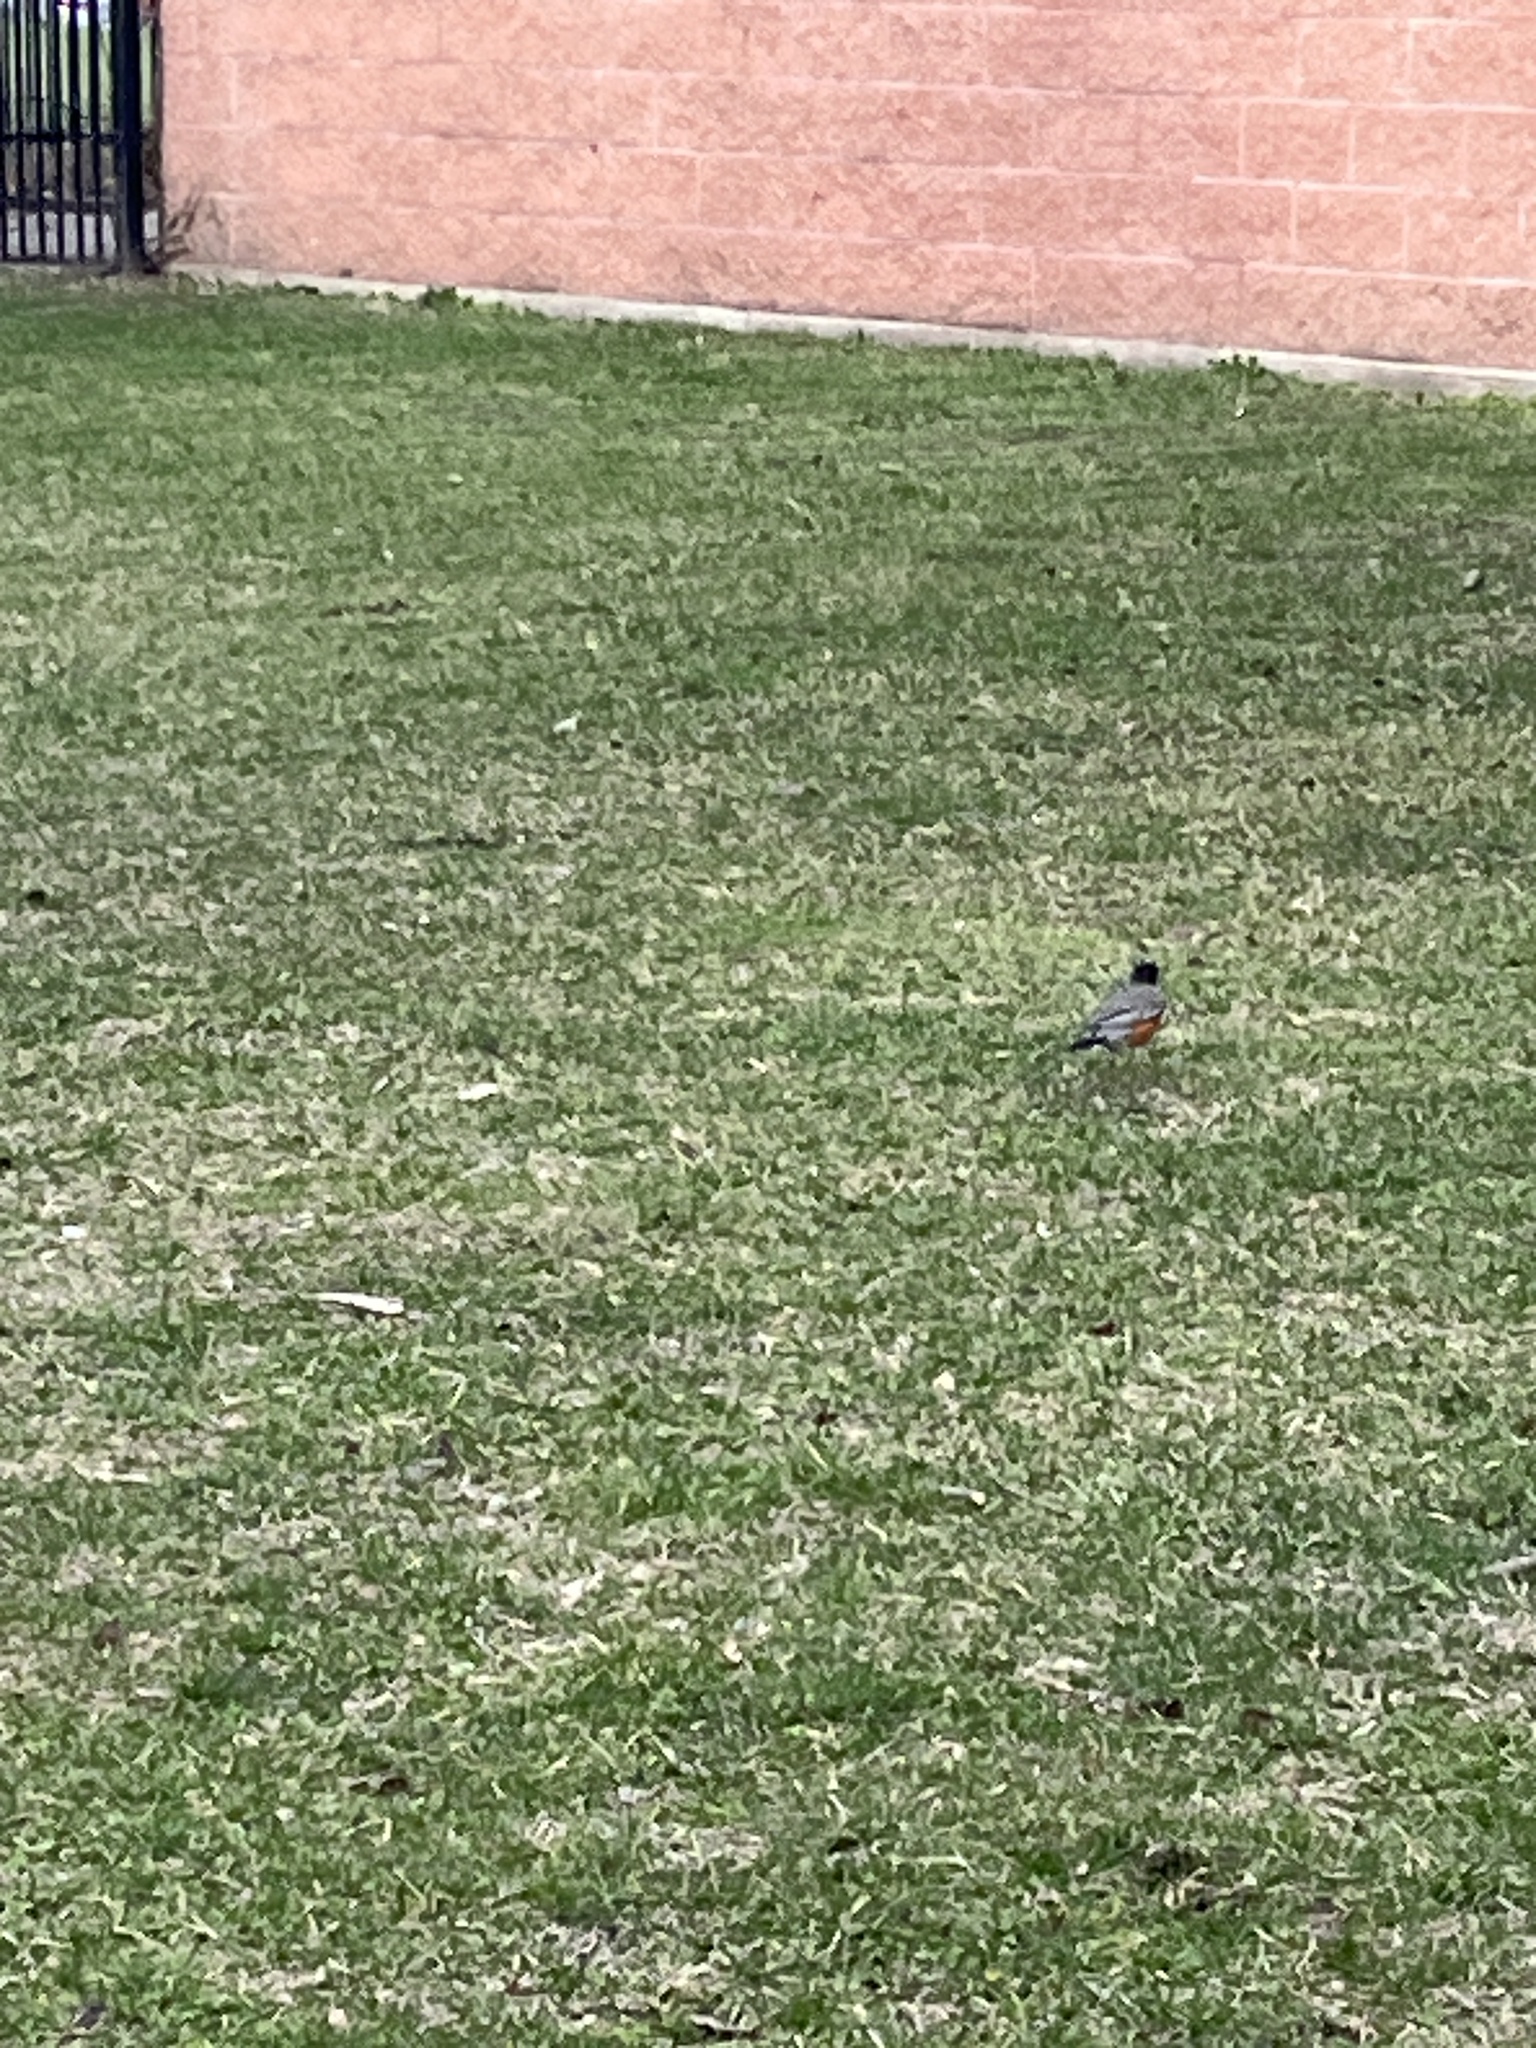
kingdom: Animalia
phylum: Chordata
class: Aves
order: Passeriformes
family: Turdidae
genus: Turdus
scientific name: Turdus migratorius
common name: American robin
